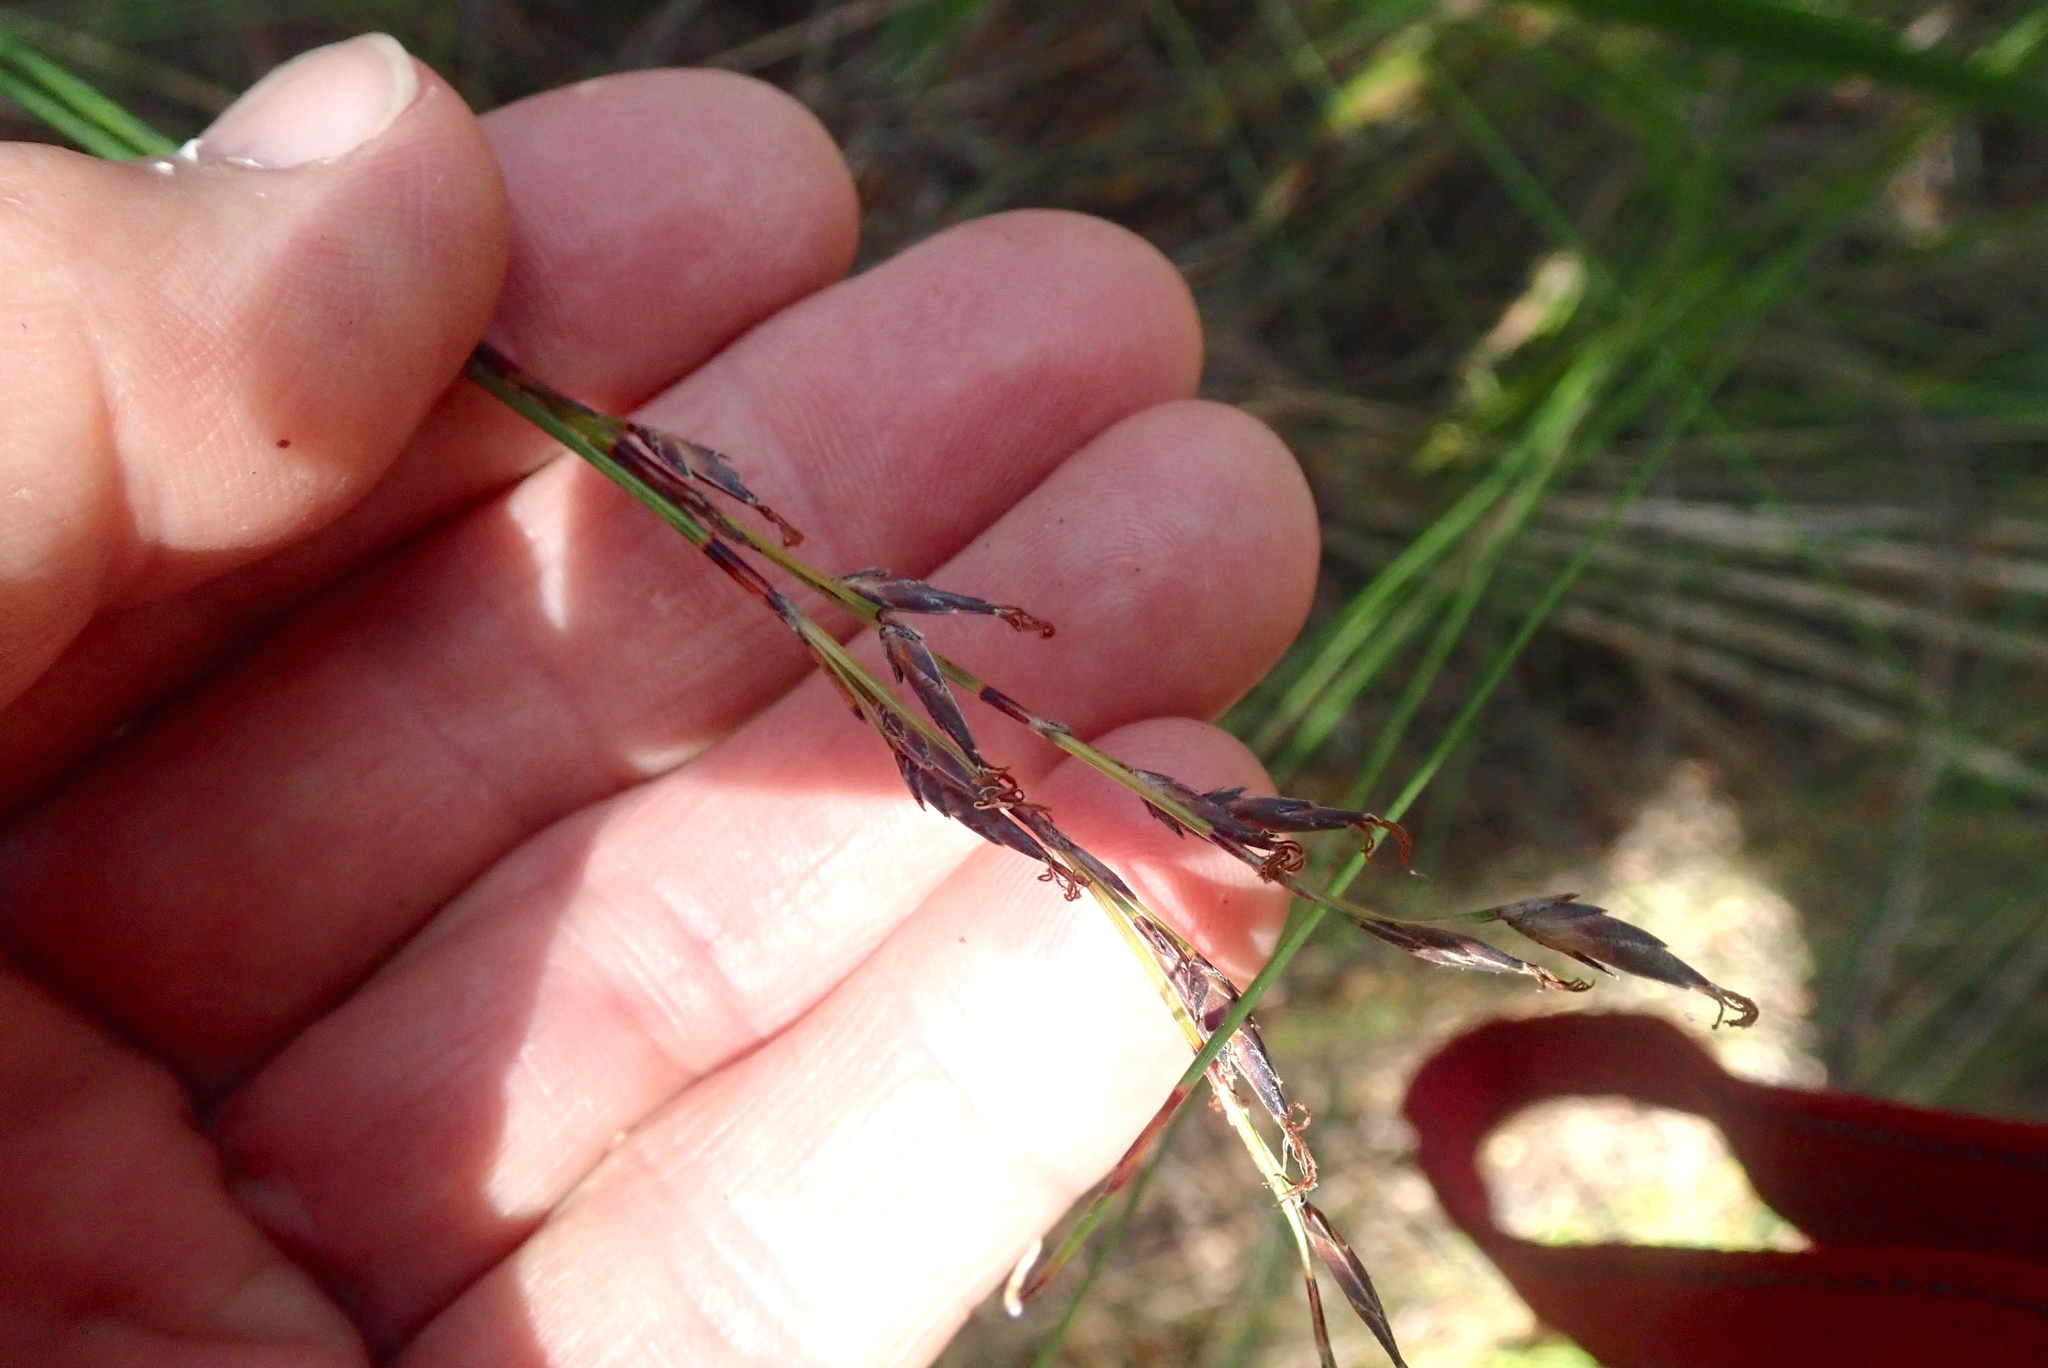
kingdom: Plantae
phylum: Tracheophyta
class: Liliopsida
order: Poales
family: Cyperaceae
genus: Schoenus
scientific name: Schoenus tendo
